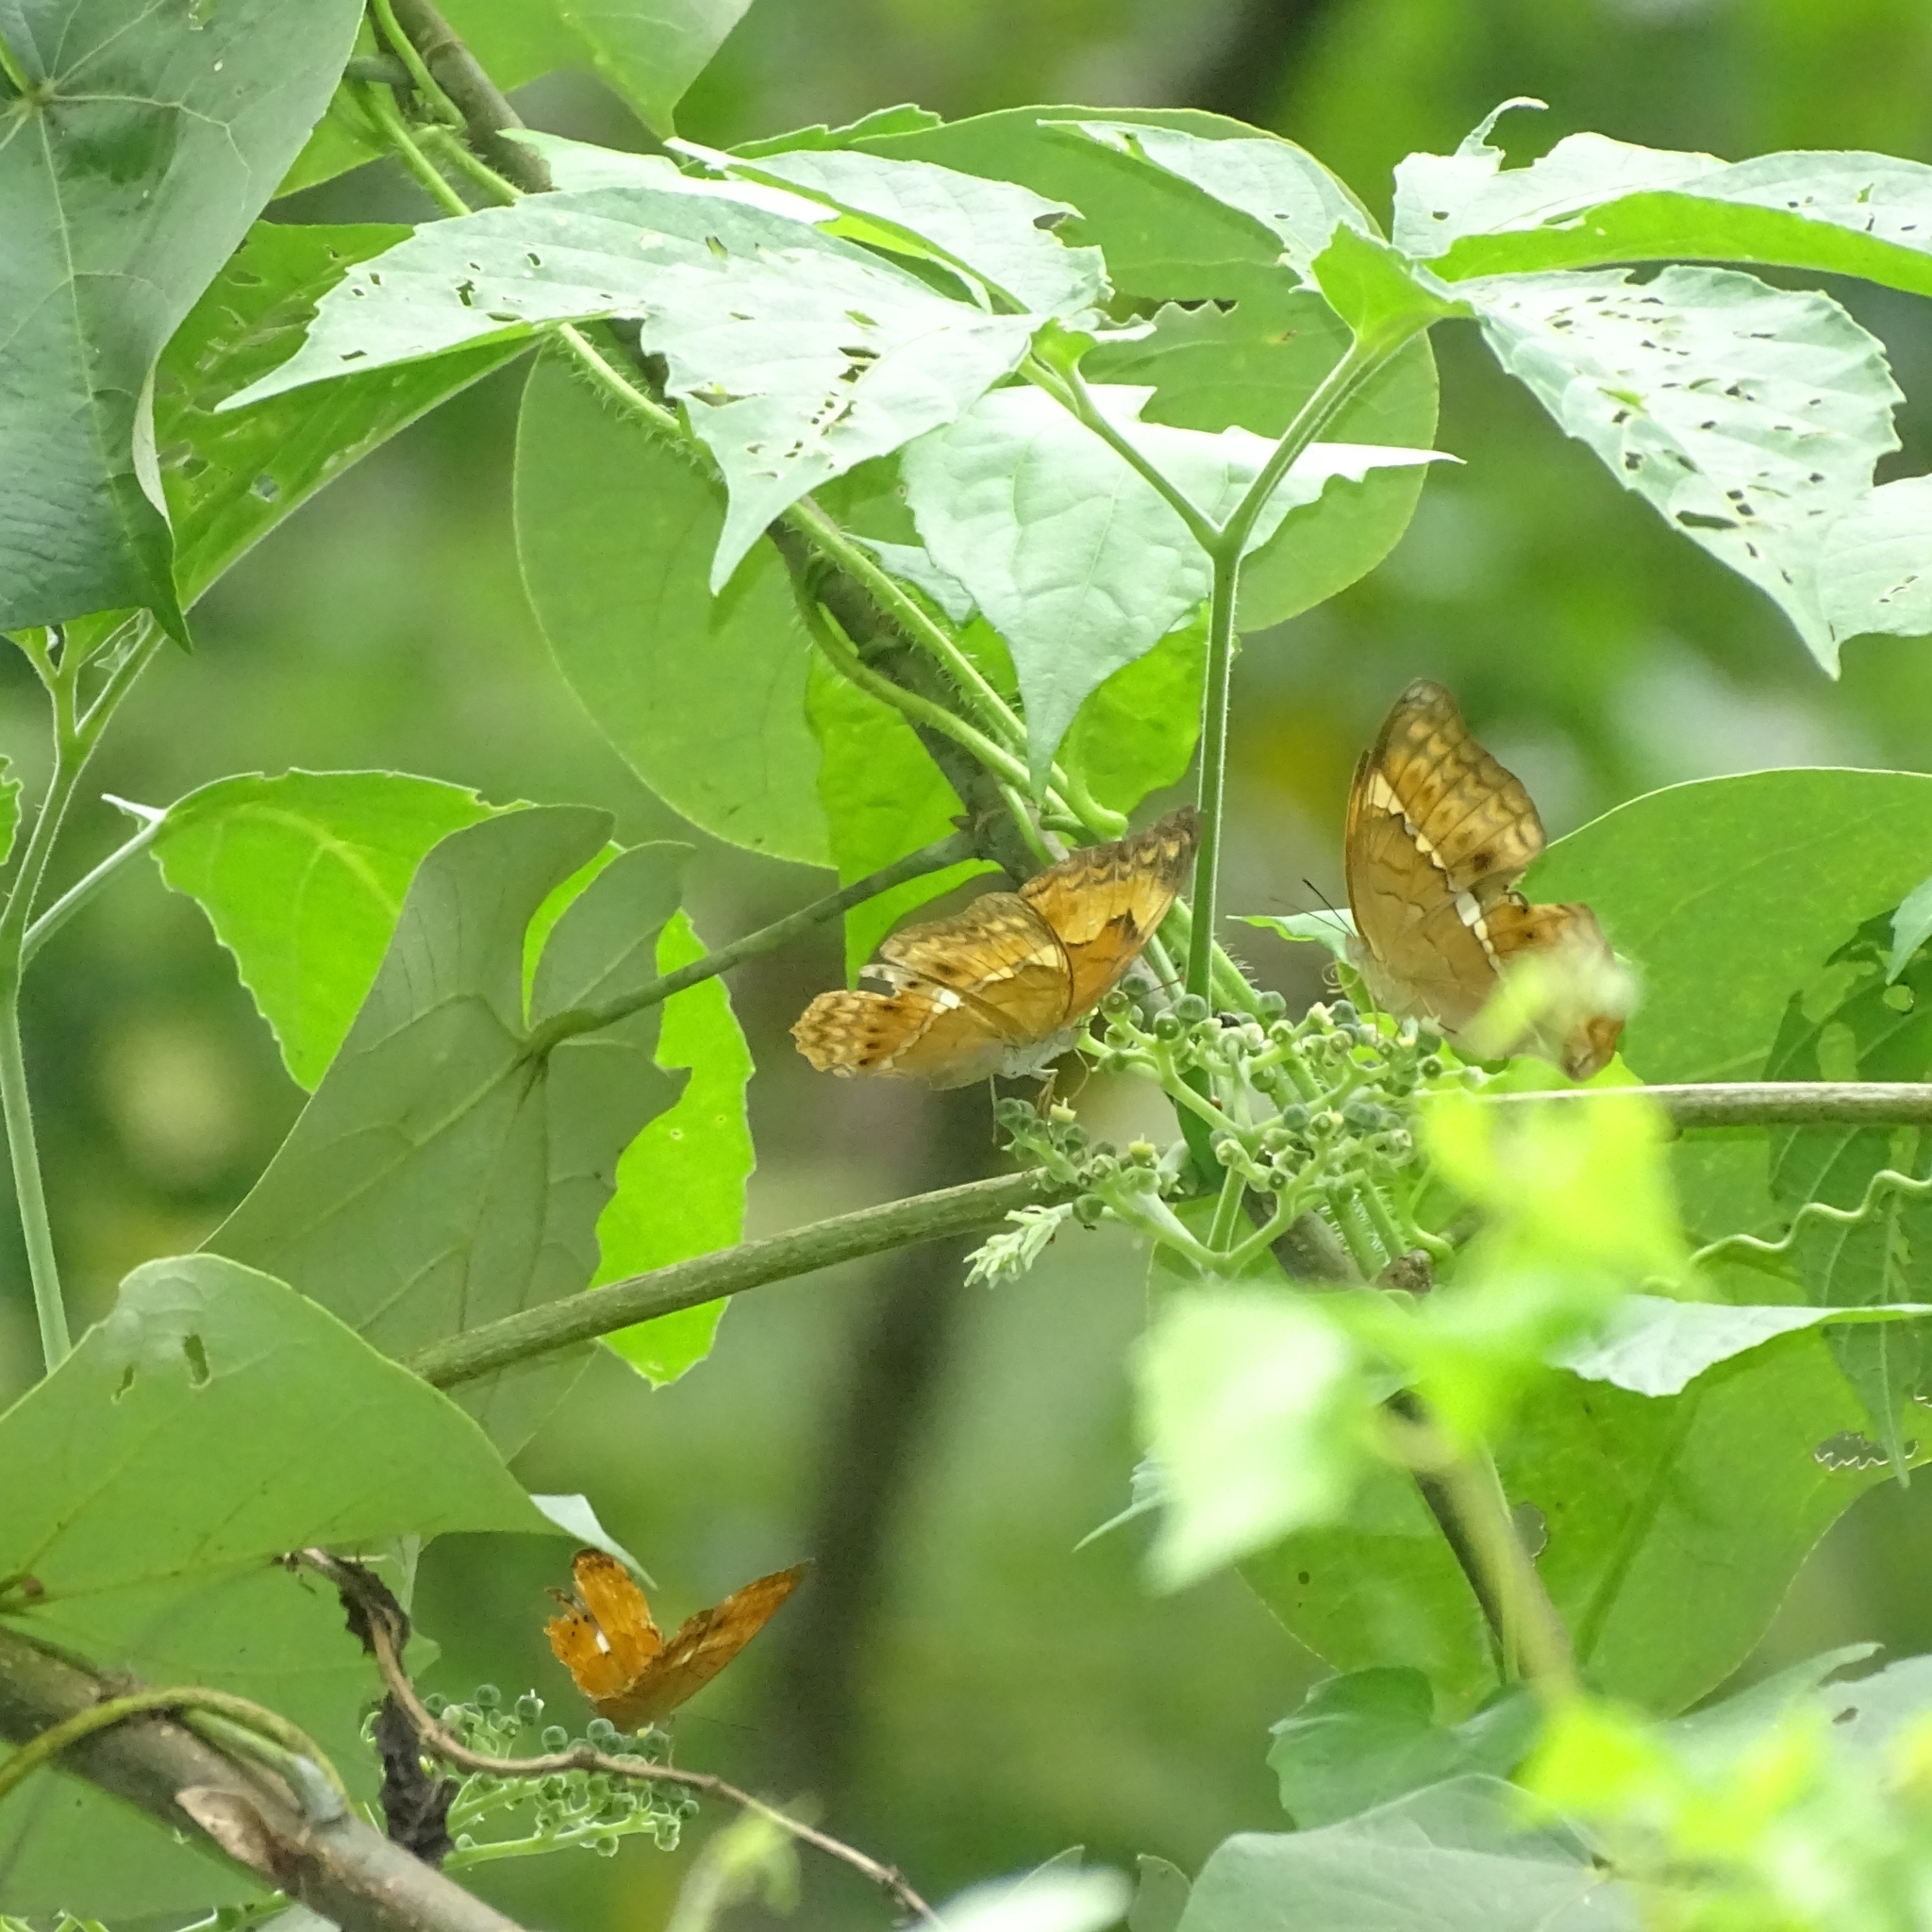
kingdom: Animalia
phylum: Arthropoda
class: Insecta
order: Lepidoptera
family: Nymphalidae
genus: Cirrochroa
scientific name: Cirrochroa thais
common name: Tamil yeoman
